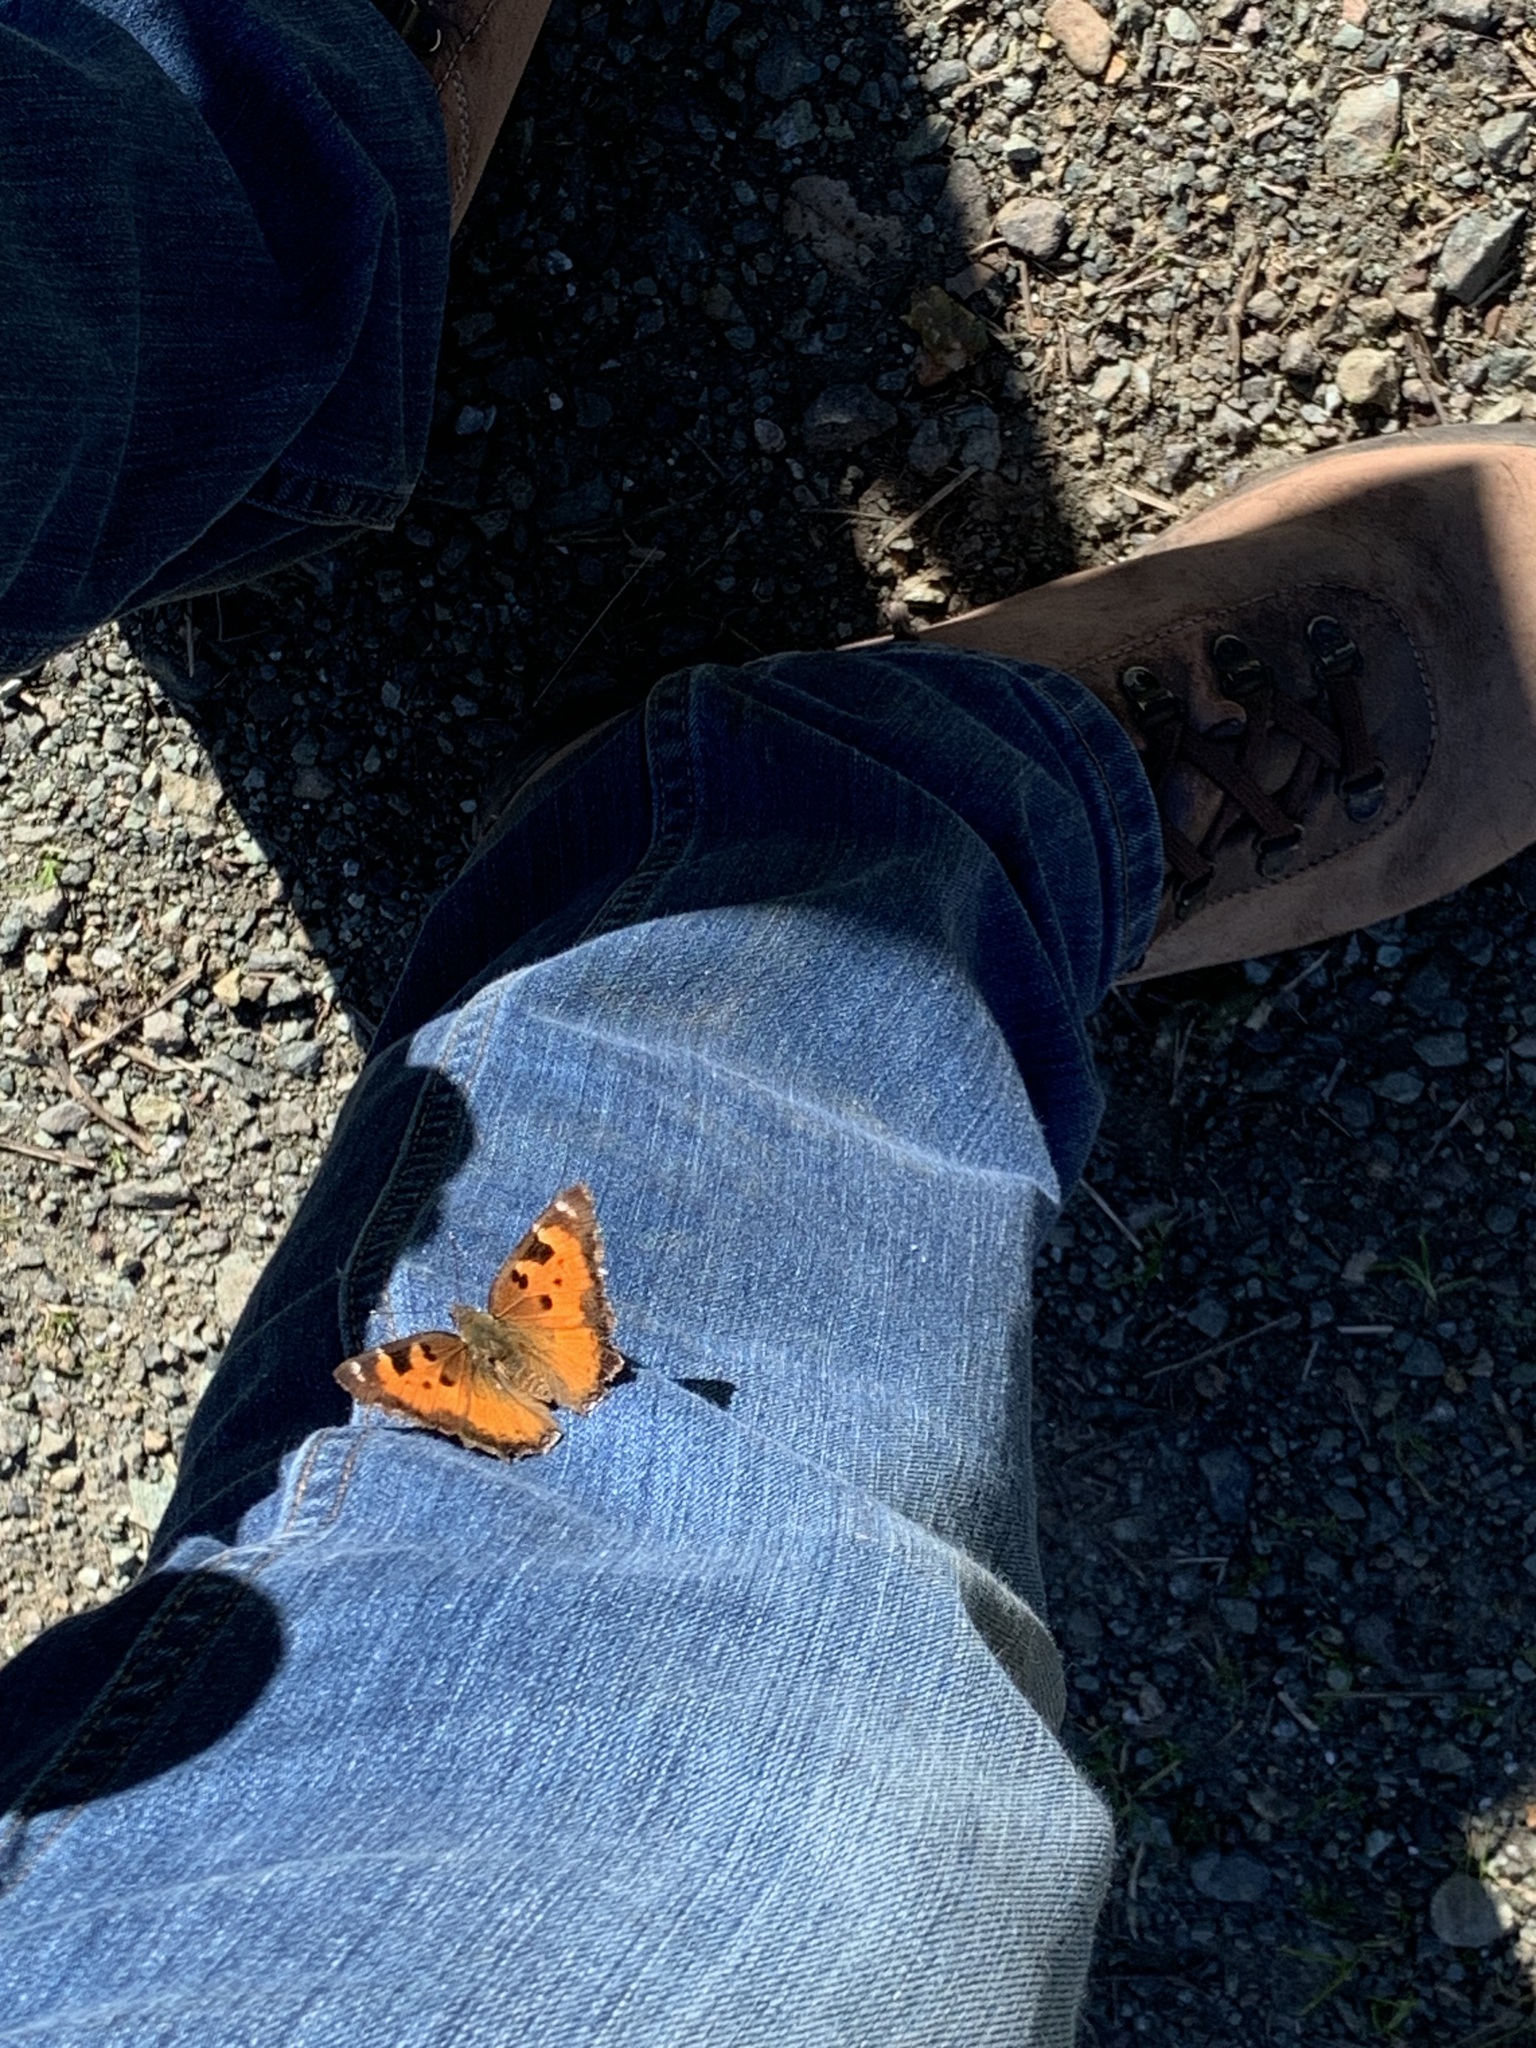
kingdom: Animalia
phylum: Arthropoda
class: Insecta
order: Lepidoptera
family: Nymphalidae
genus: Nymphalis
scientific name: Nymphalis californica
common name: California tortoiseshell
